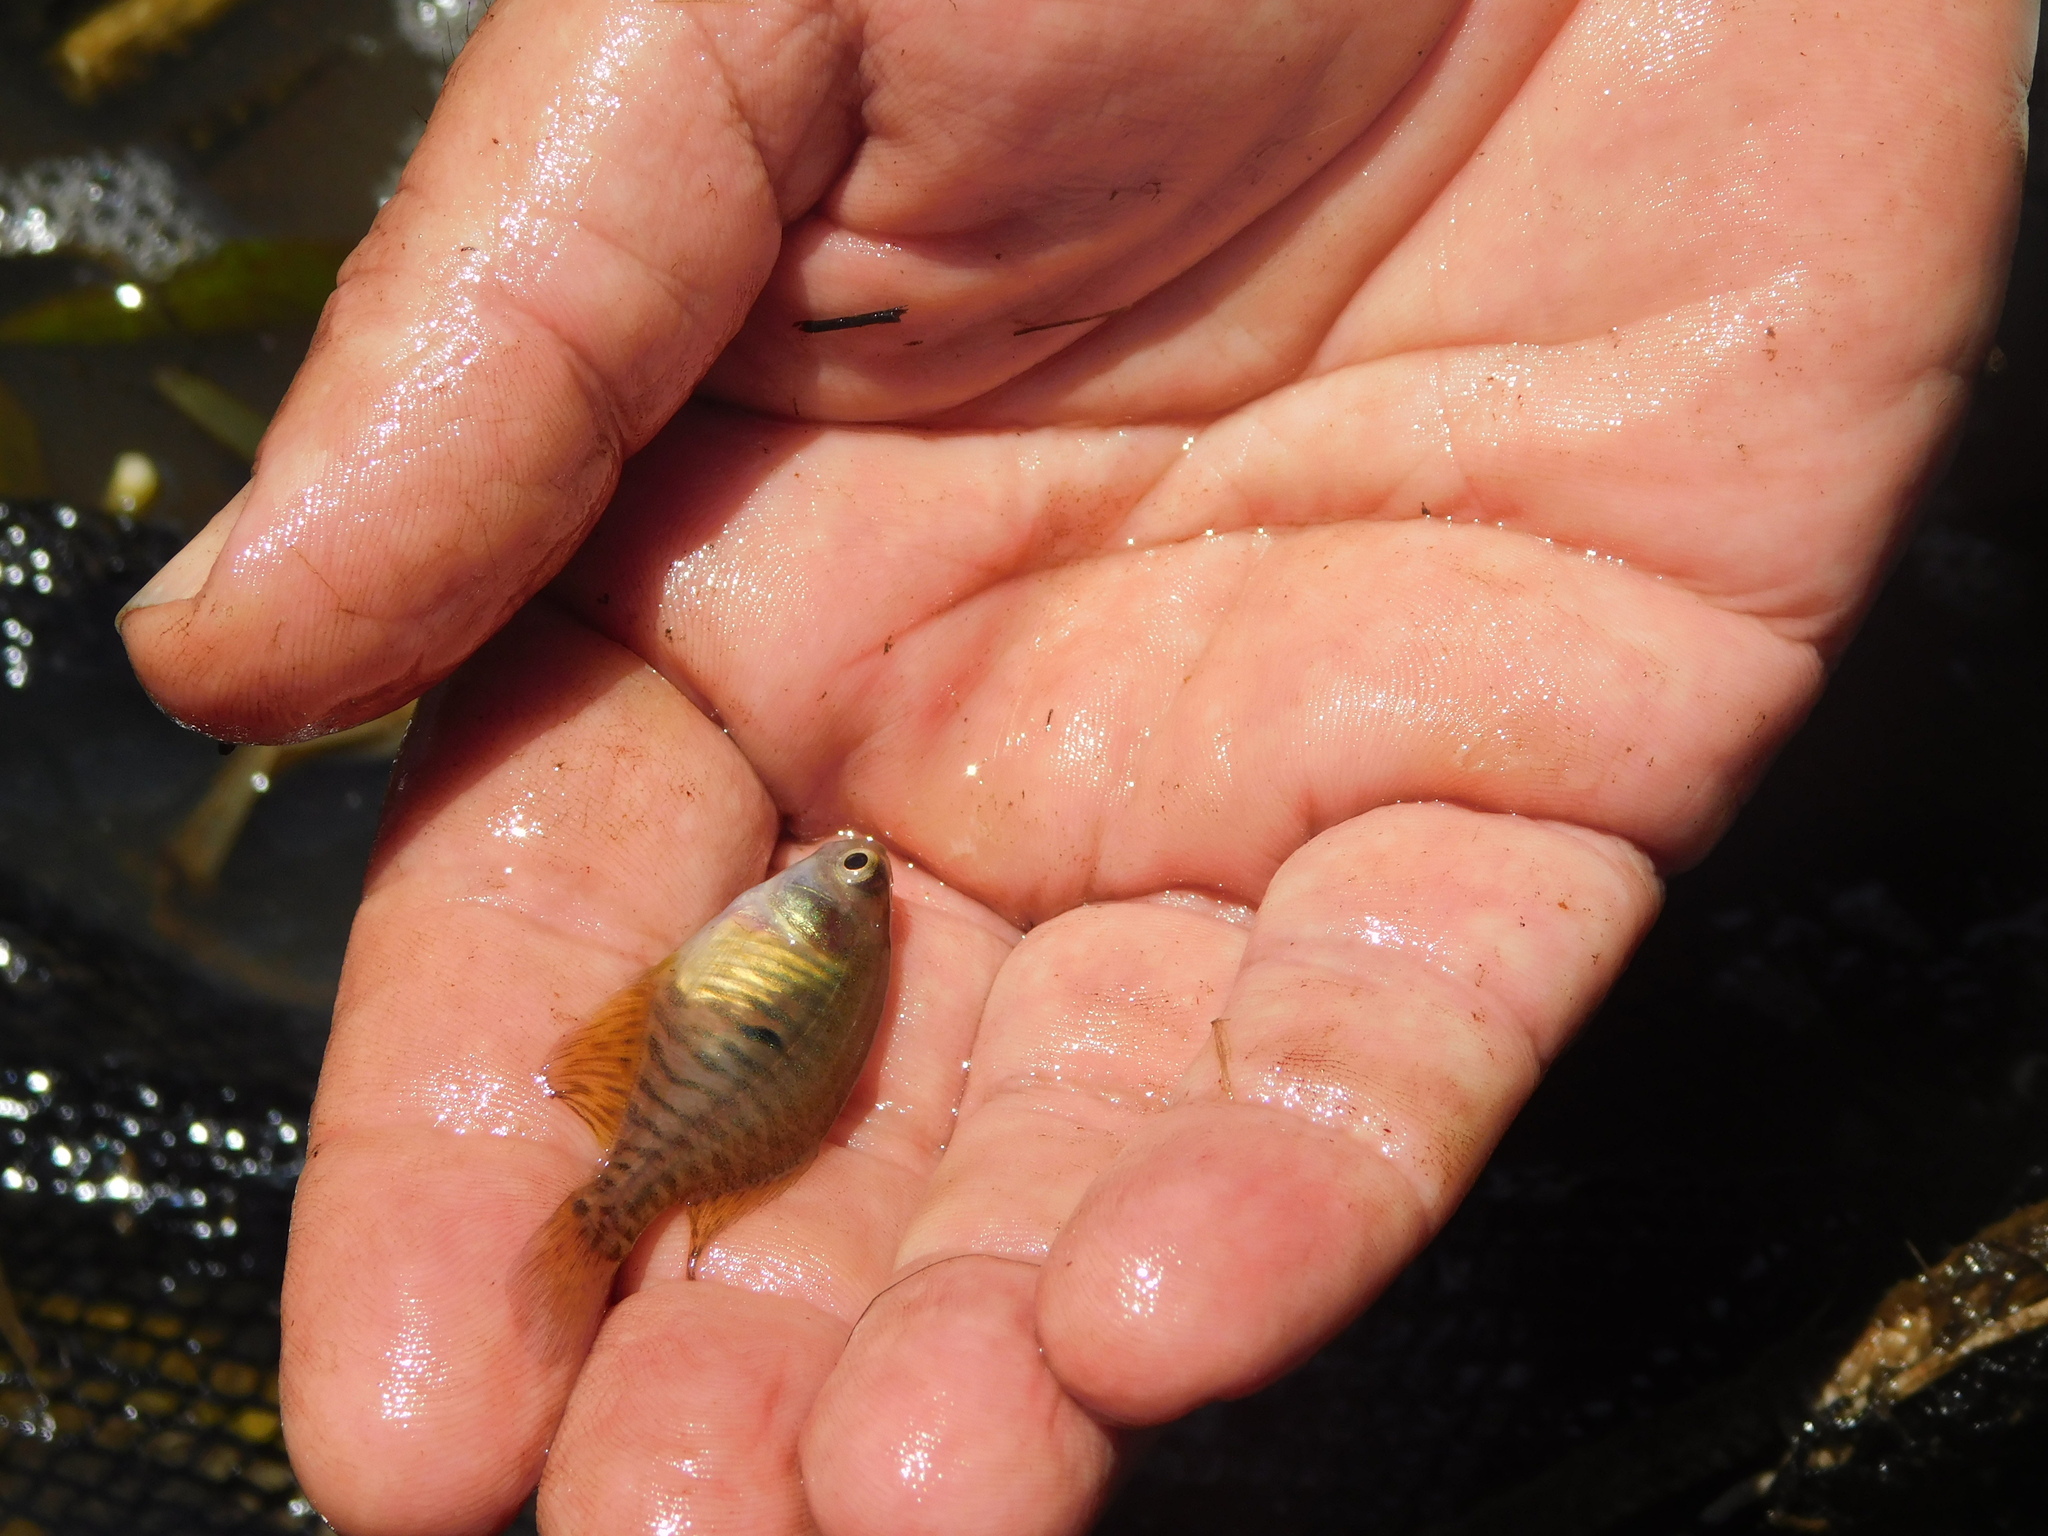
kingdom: Animalia
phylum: Chordata
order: Cyprinodontiformes
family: Rivulidae
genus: Austrolebias
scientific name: Austrolebias bellottii
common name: Argentine pearlfish
